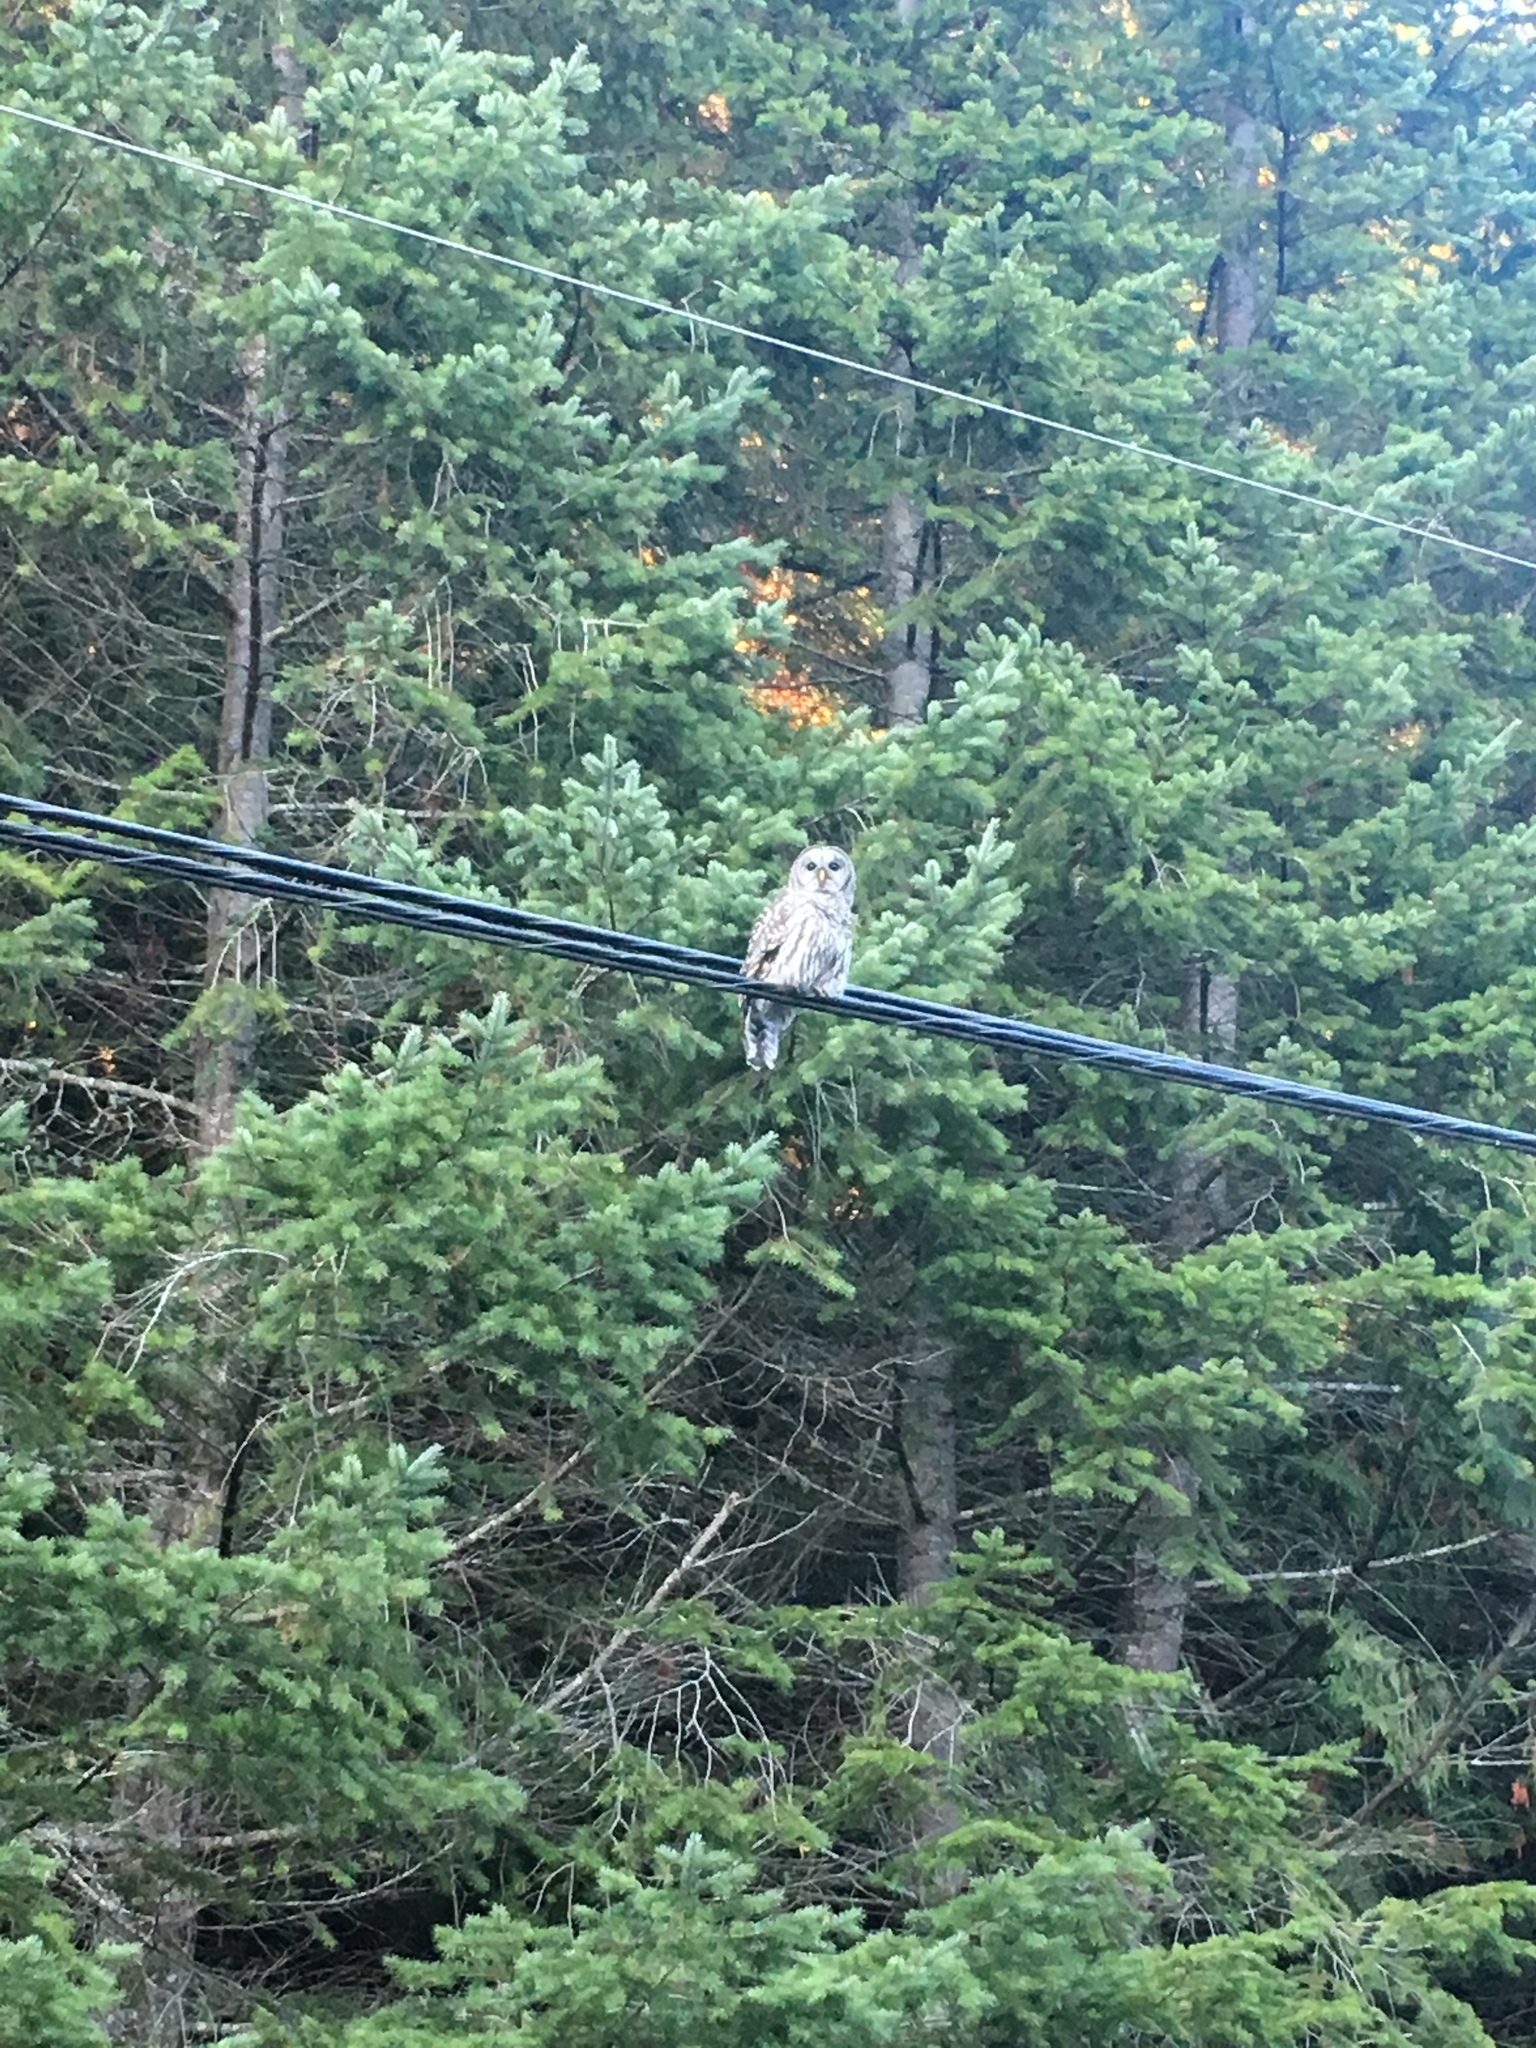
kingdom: Animalia
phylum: Chordata
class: Aves
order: Strigiformes
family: Strigidae
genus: Strix
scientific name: Strix varia
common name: Barred owl
